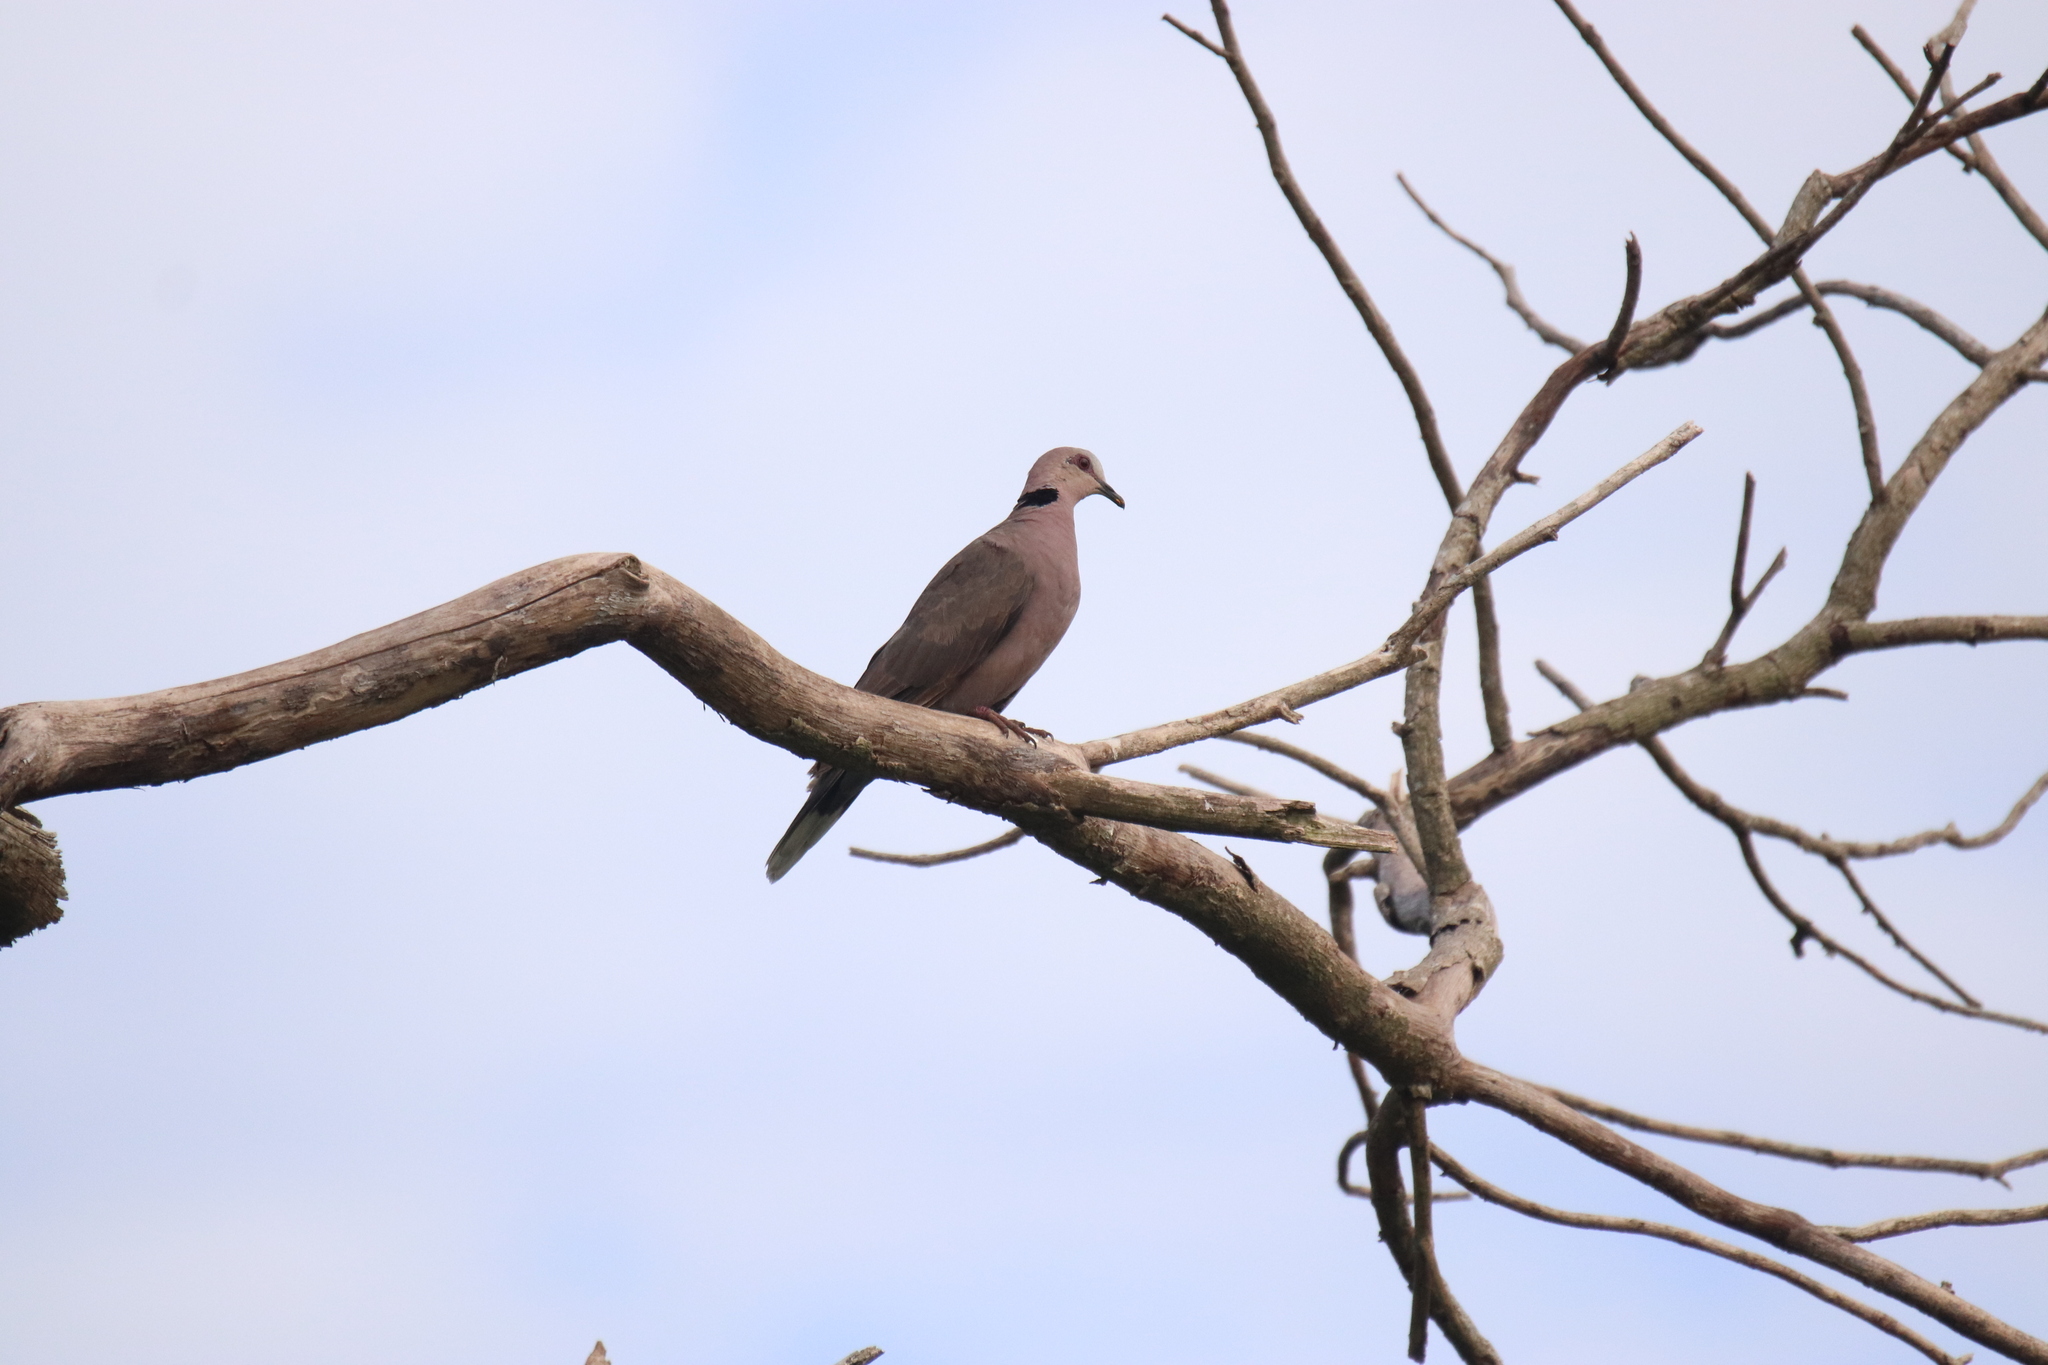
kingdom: Animalia
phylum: Chordata
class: Aves
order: Columbiformes
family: Columbidae
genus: Streptopelia
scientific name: Streptopelia semitorquata
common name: Red-eyed dove
